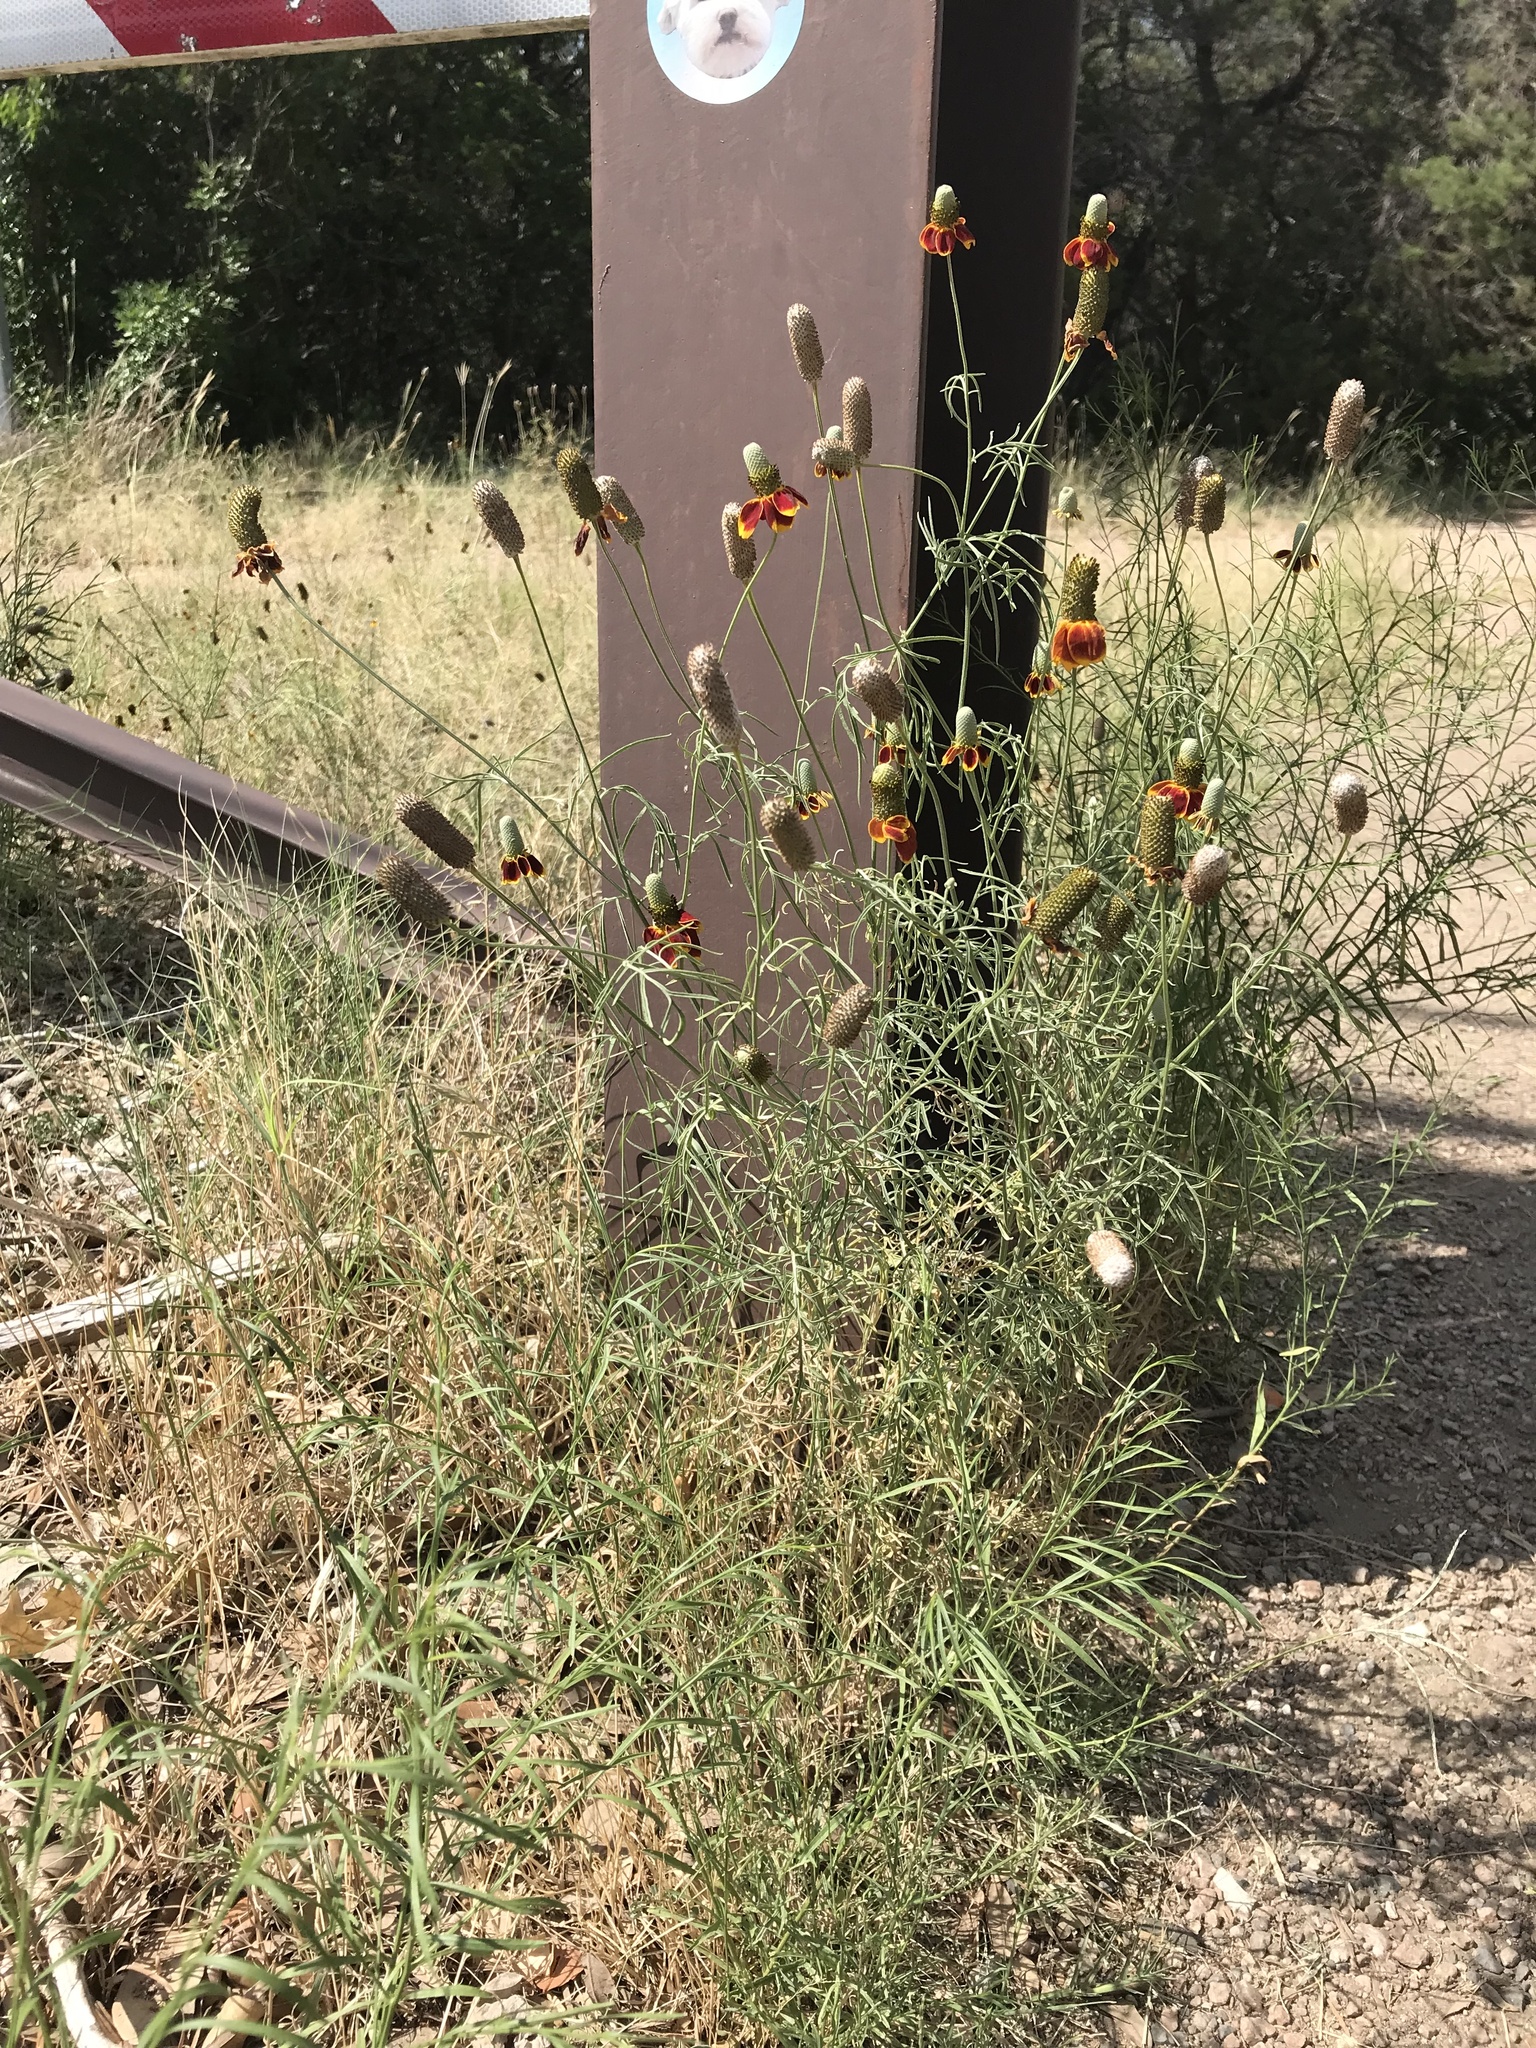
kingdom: Plantae
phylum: Tracheophyta
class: Magnoliopsida
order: Asterales
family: Asteraceae
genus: Ratibida
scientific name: Ratibida columnifera
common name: Prairie coneflower
